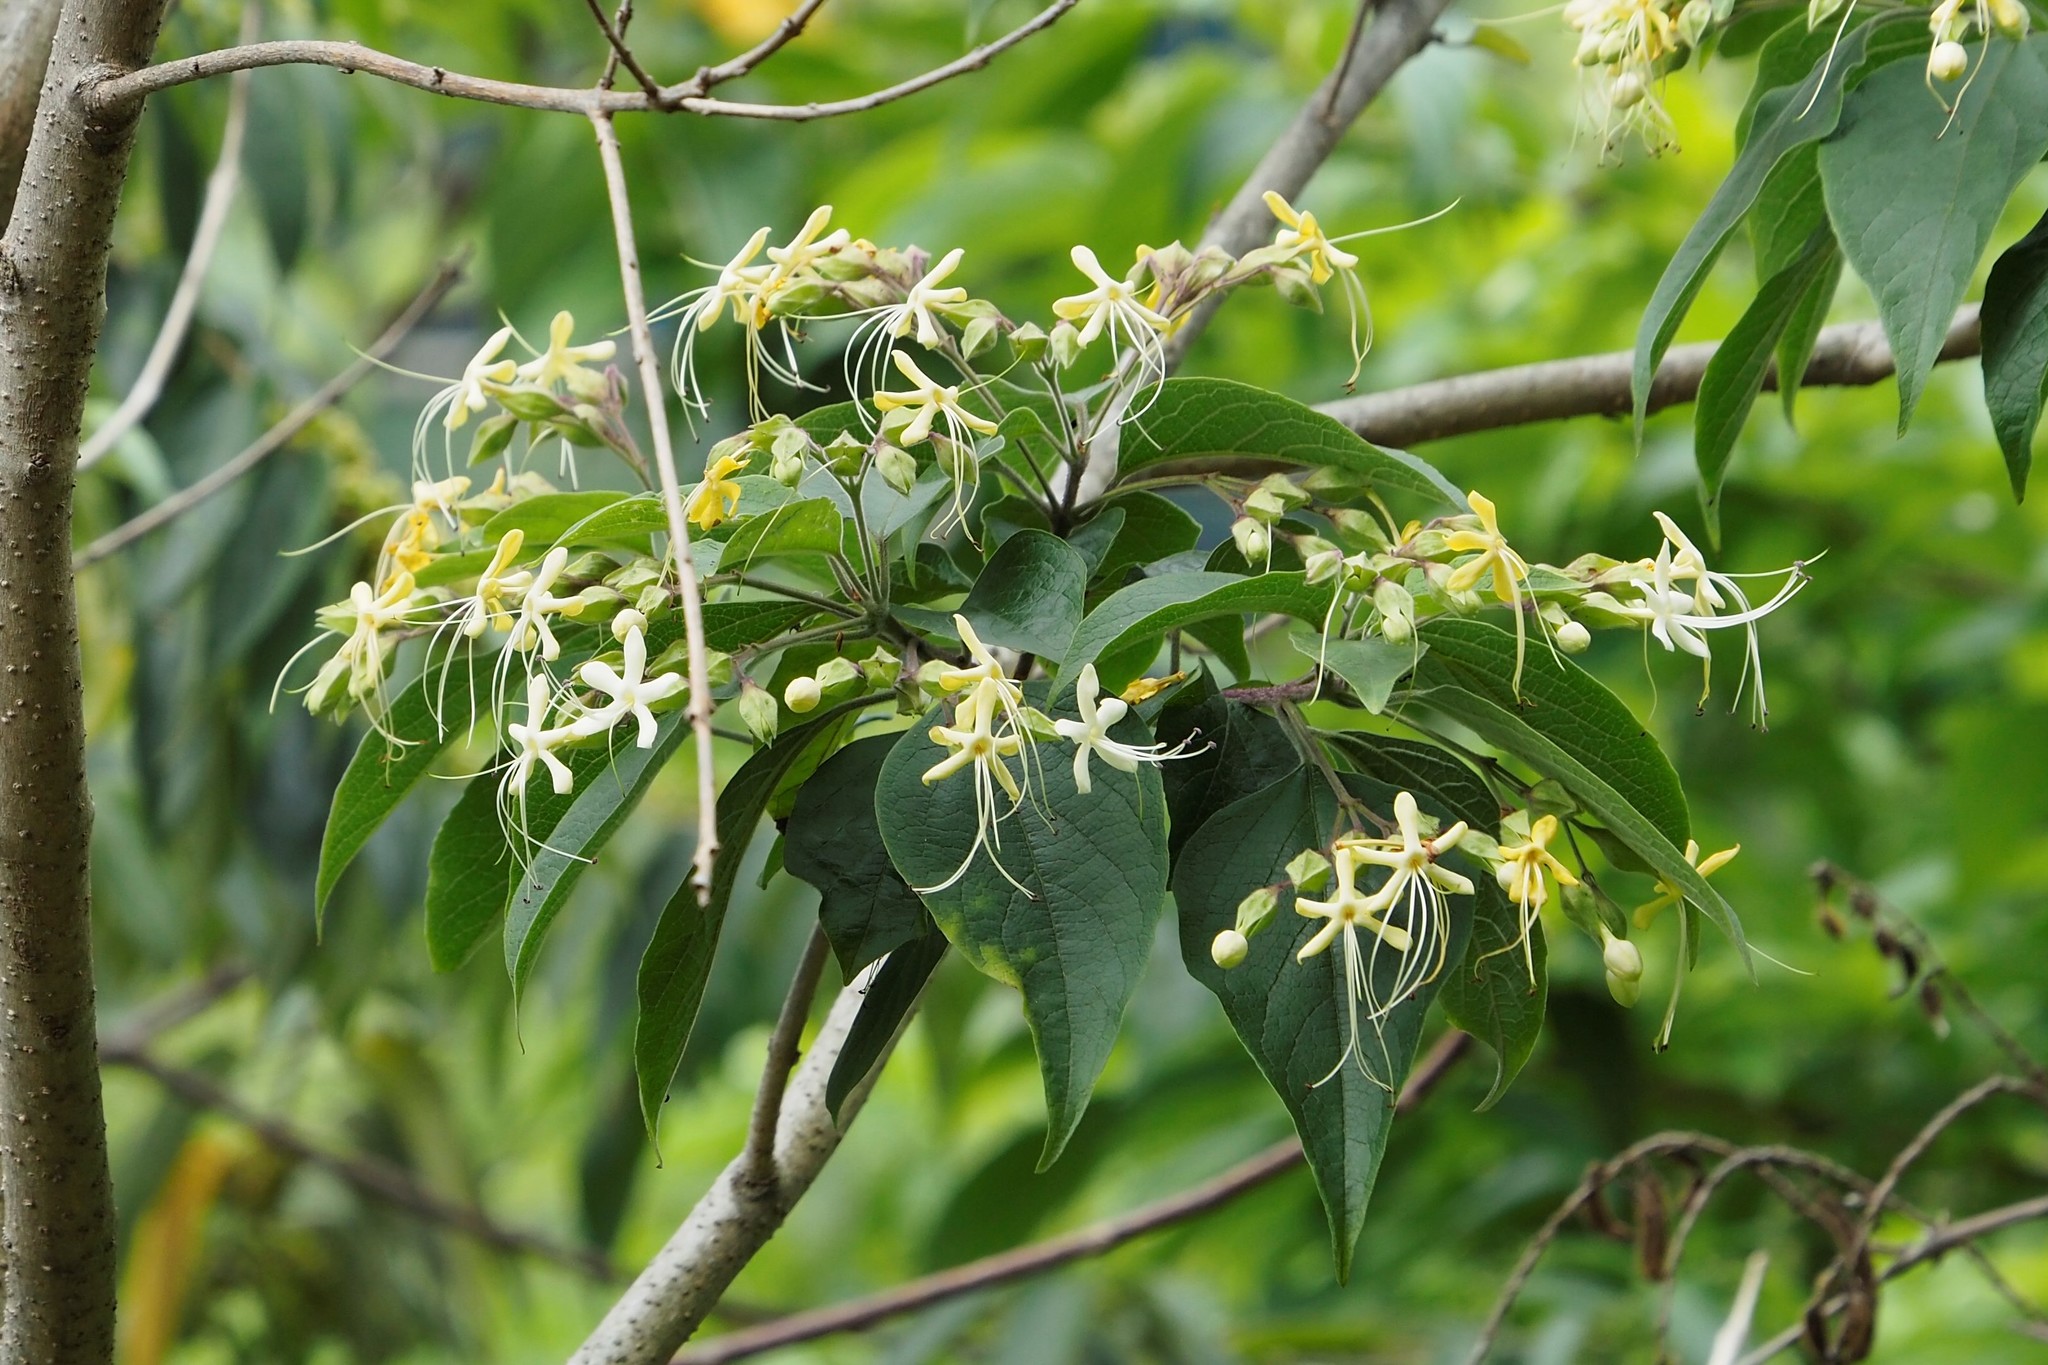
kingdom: Plantae
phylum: Tracheophyta
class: Magnoliopsida
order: Lamiales
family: Lamiaceae
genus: Clerodendrum
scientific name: Clerodendrum trichotomum
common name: Harlequin glorybower
